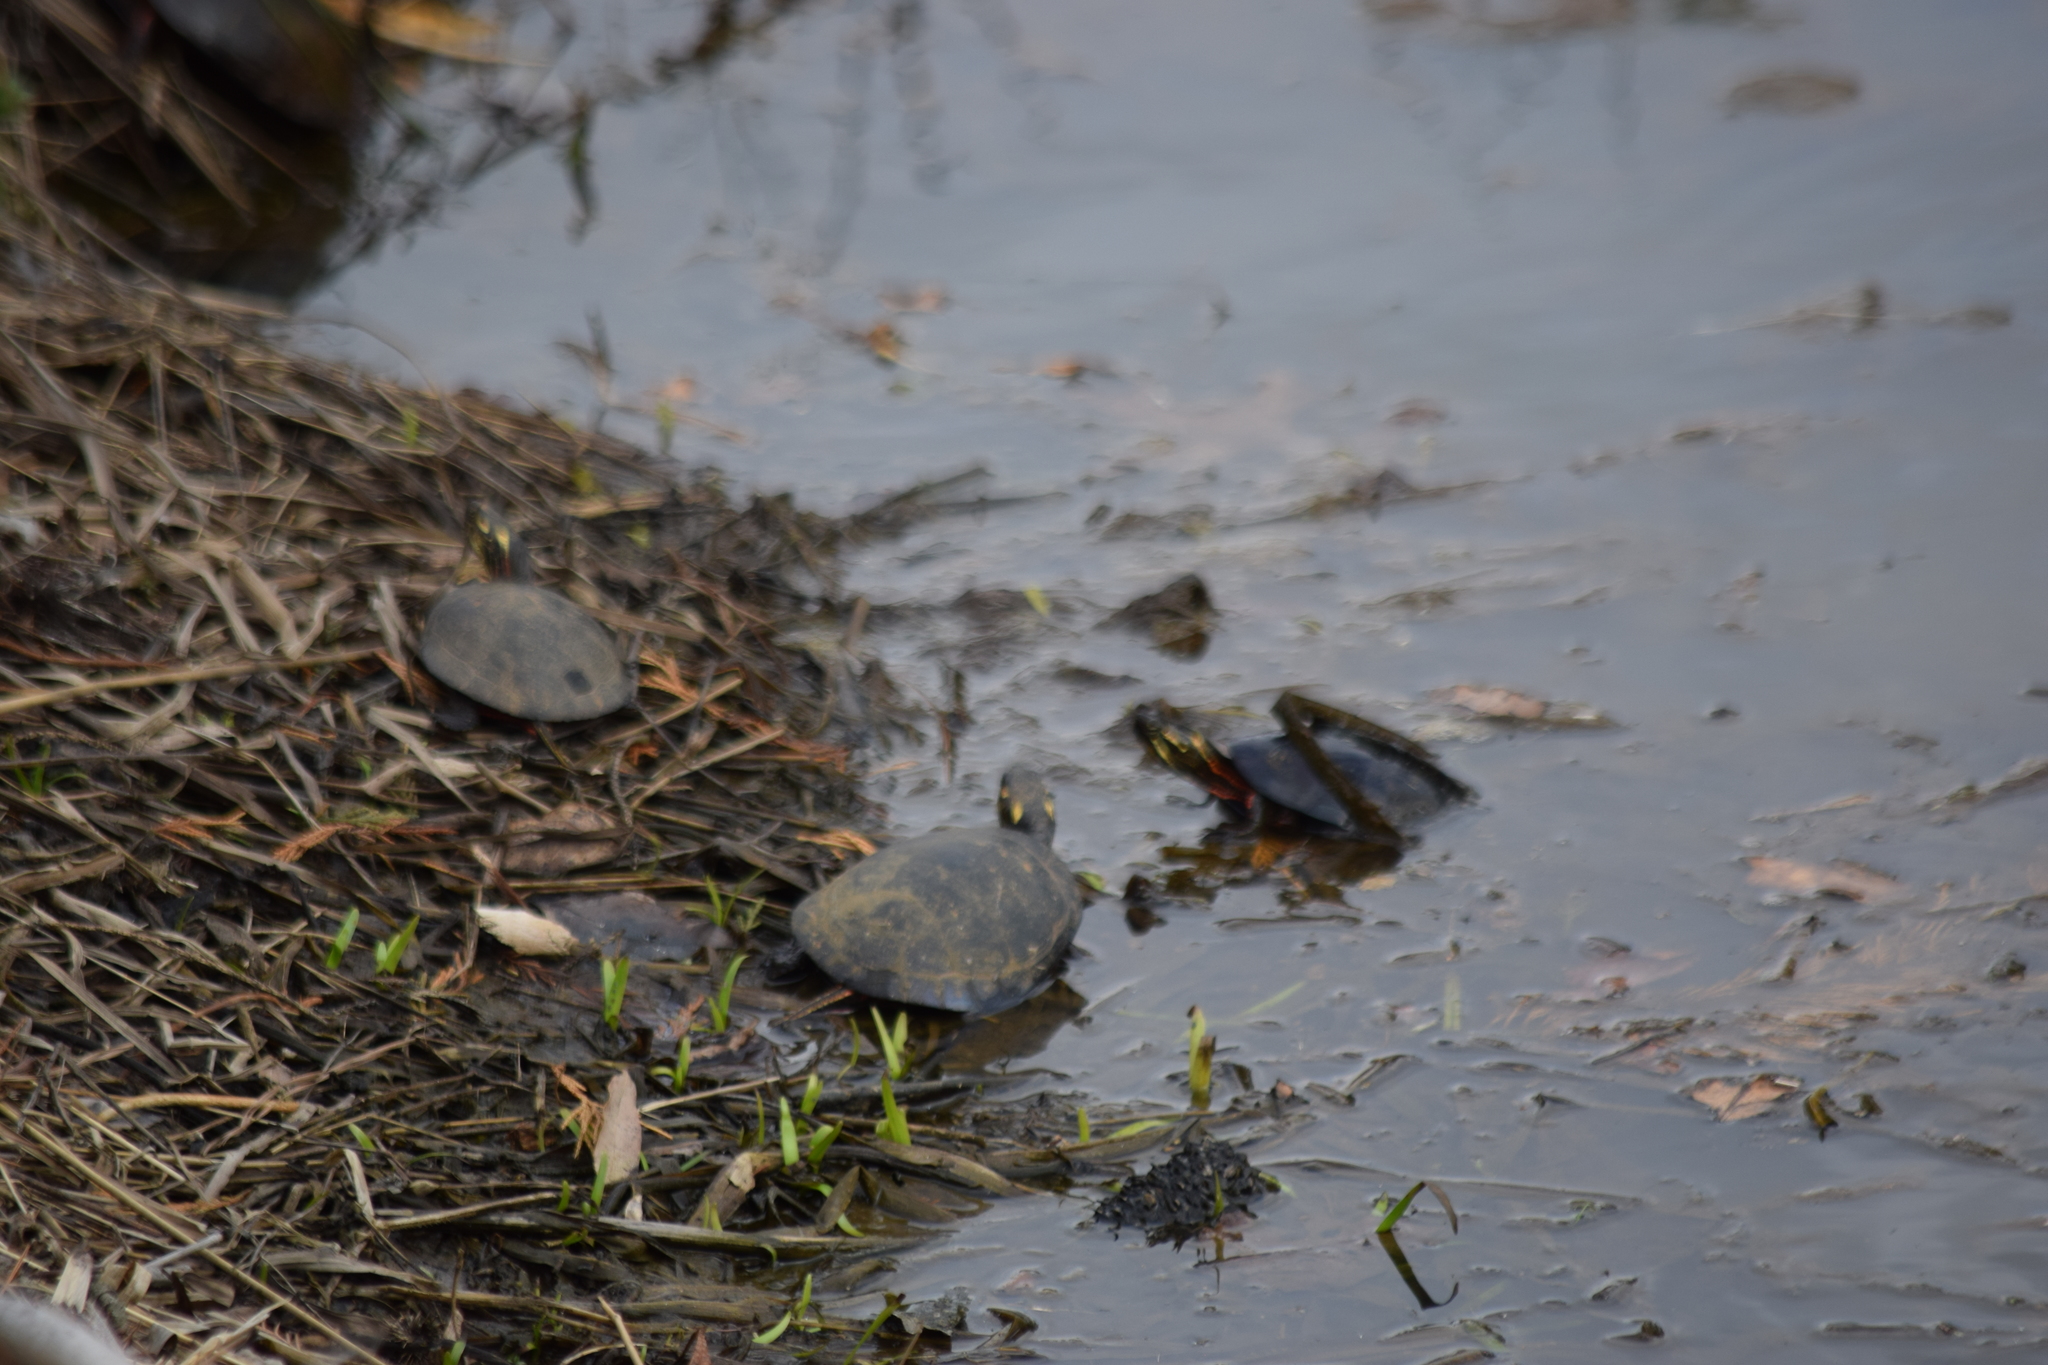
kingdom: Animalia
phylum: Chordata
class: Testudines
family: Emydidae
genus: Chrysemys
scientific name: Chrysemys picta
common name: Painted turtle
